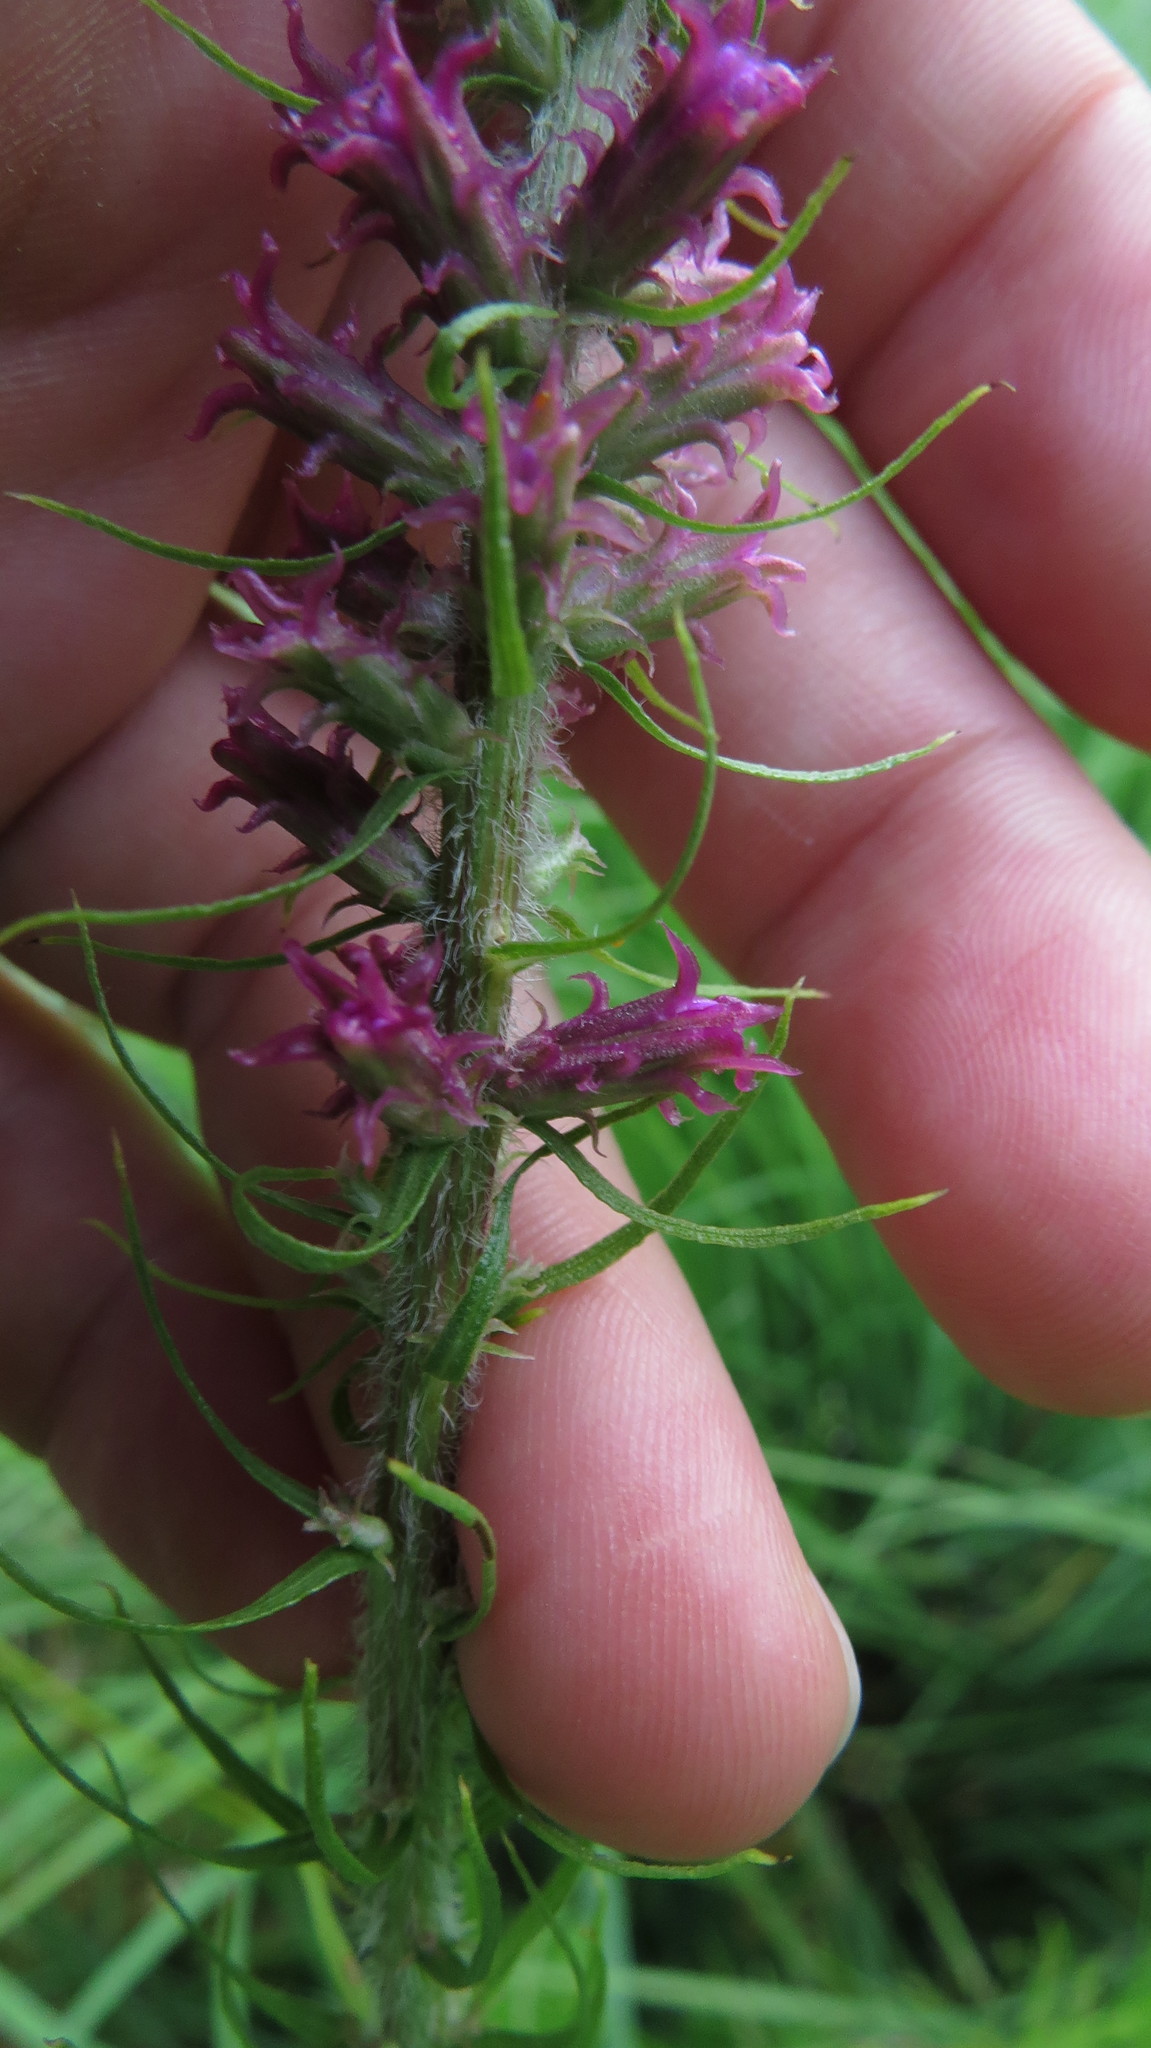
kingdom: Plantae
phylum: Tracheophyta
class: Magnoliopsida
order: Asterales
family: Asteraceae
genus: Liatris
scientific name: Liatris pycnostachya
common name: Cattail gayfeather
